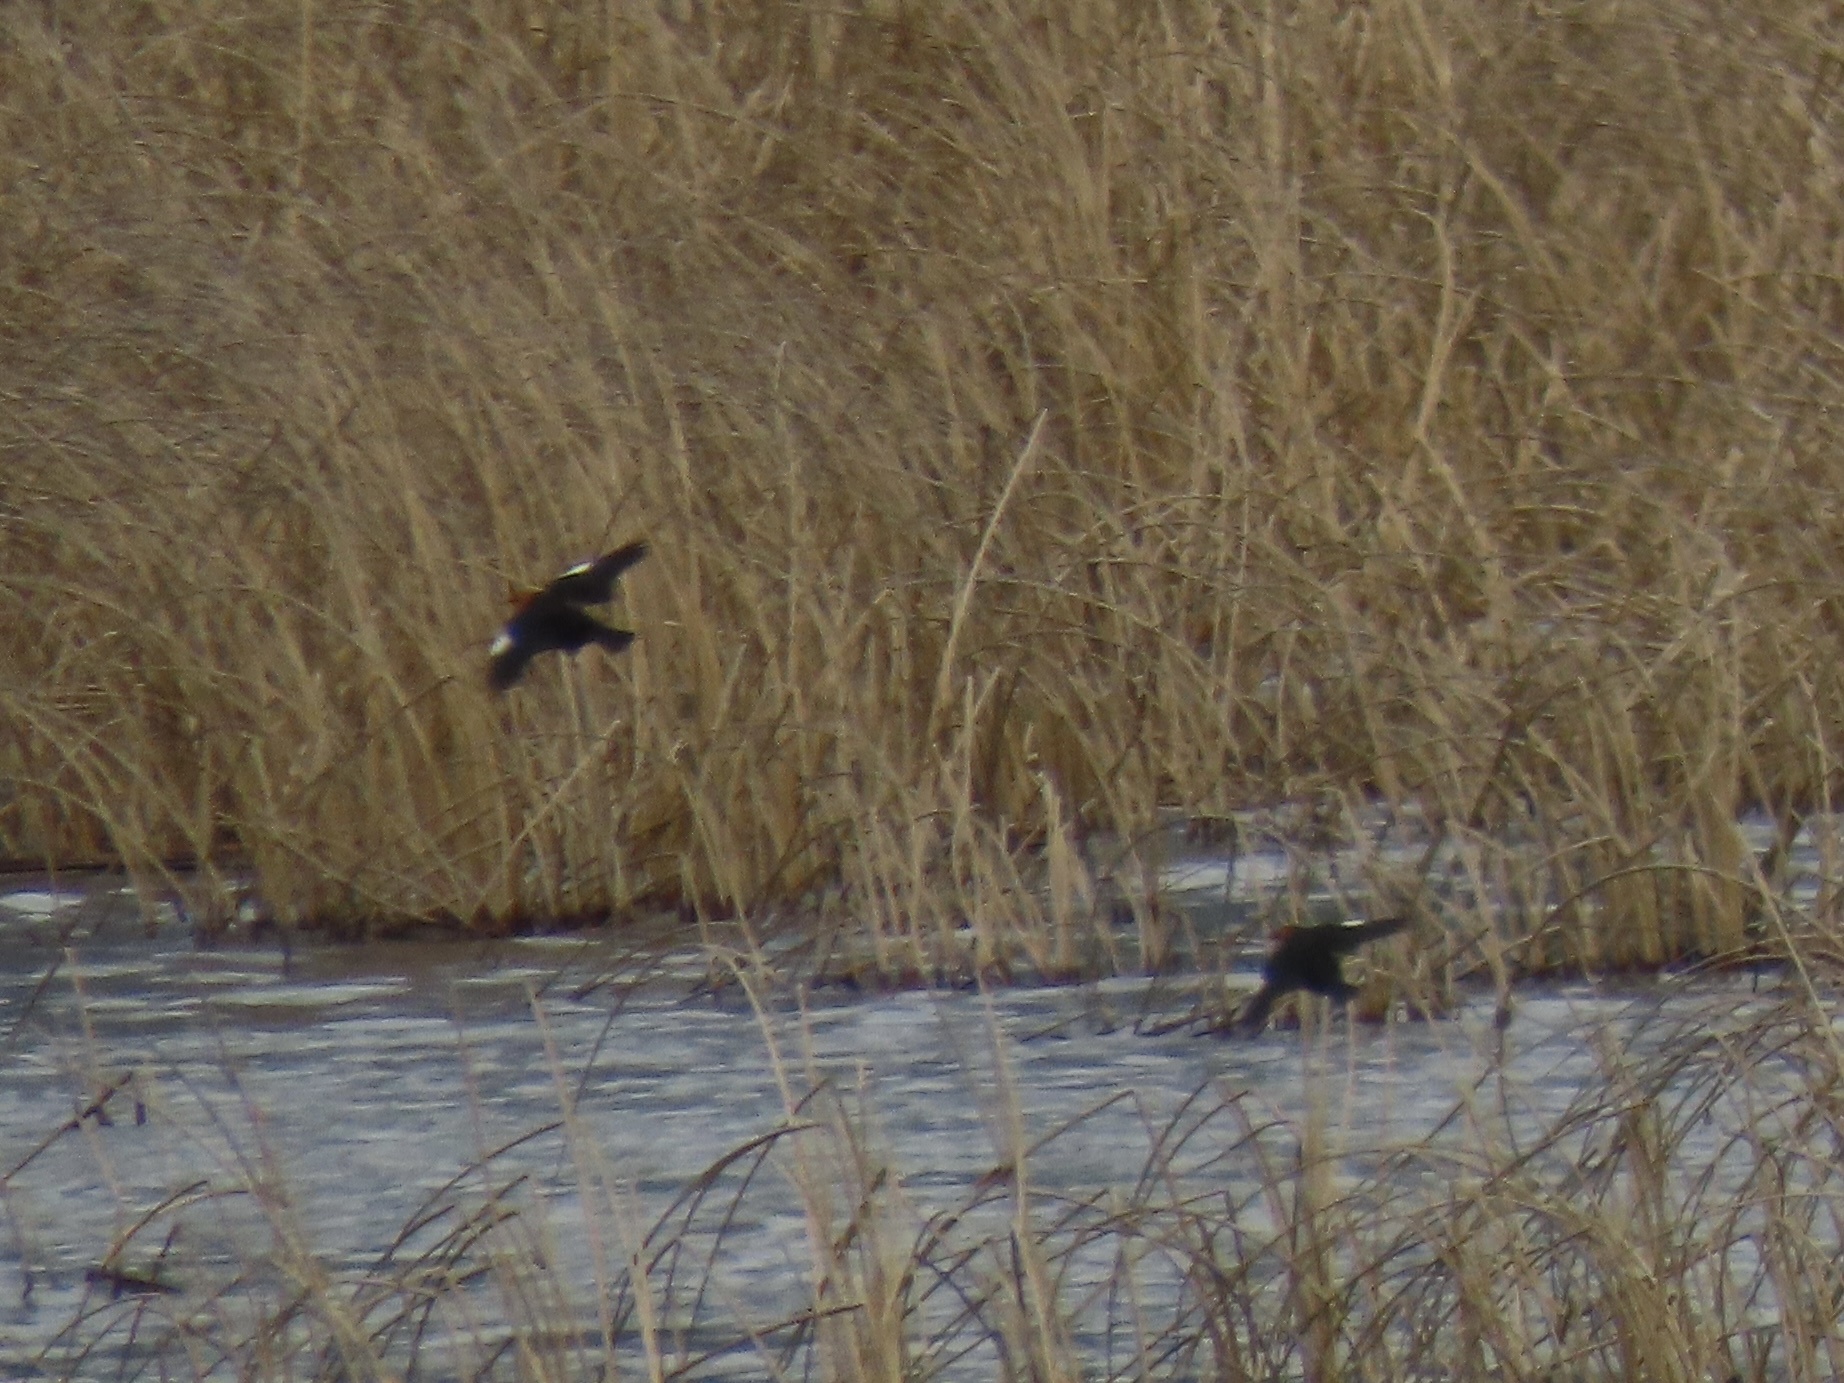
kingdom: Animalia
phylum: Chordata
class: Aves
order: Passeriformes
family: Icteridae
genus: Xanthocephalus
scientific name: Xanthocephalus xanthocephalus
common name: Yellow-headed blackbird
